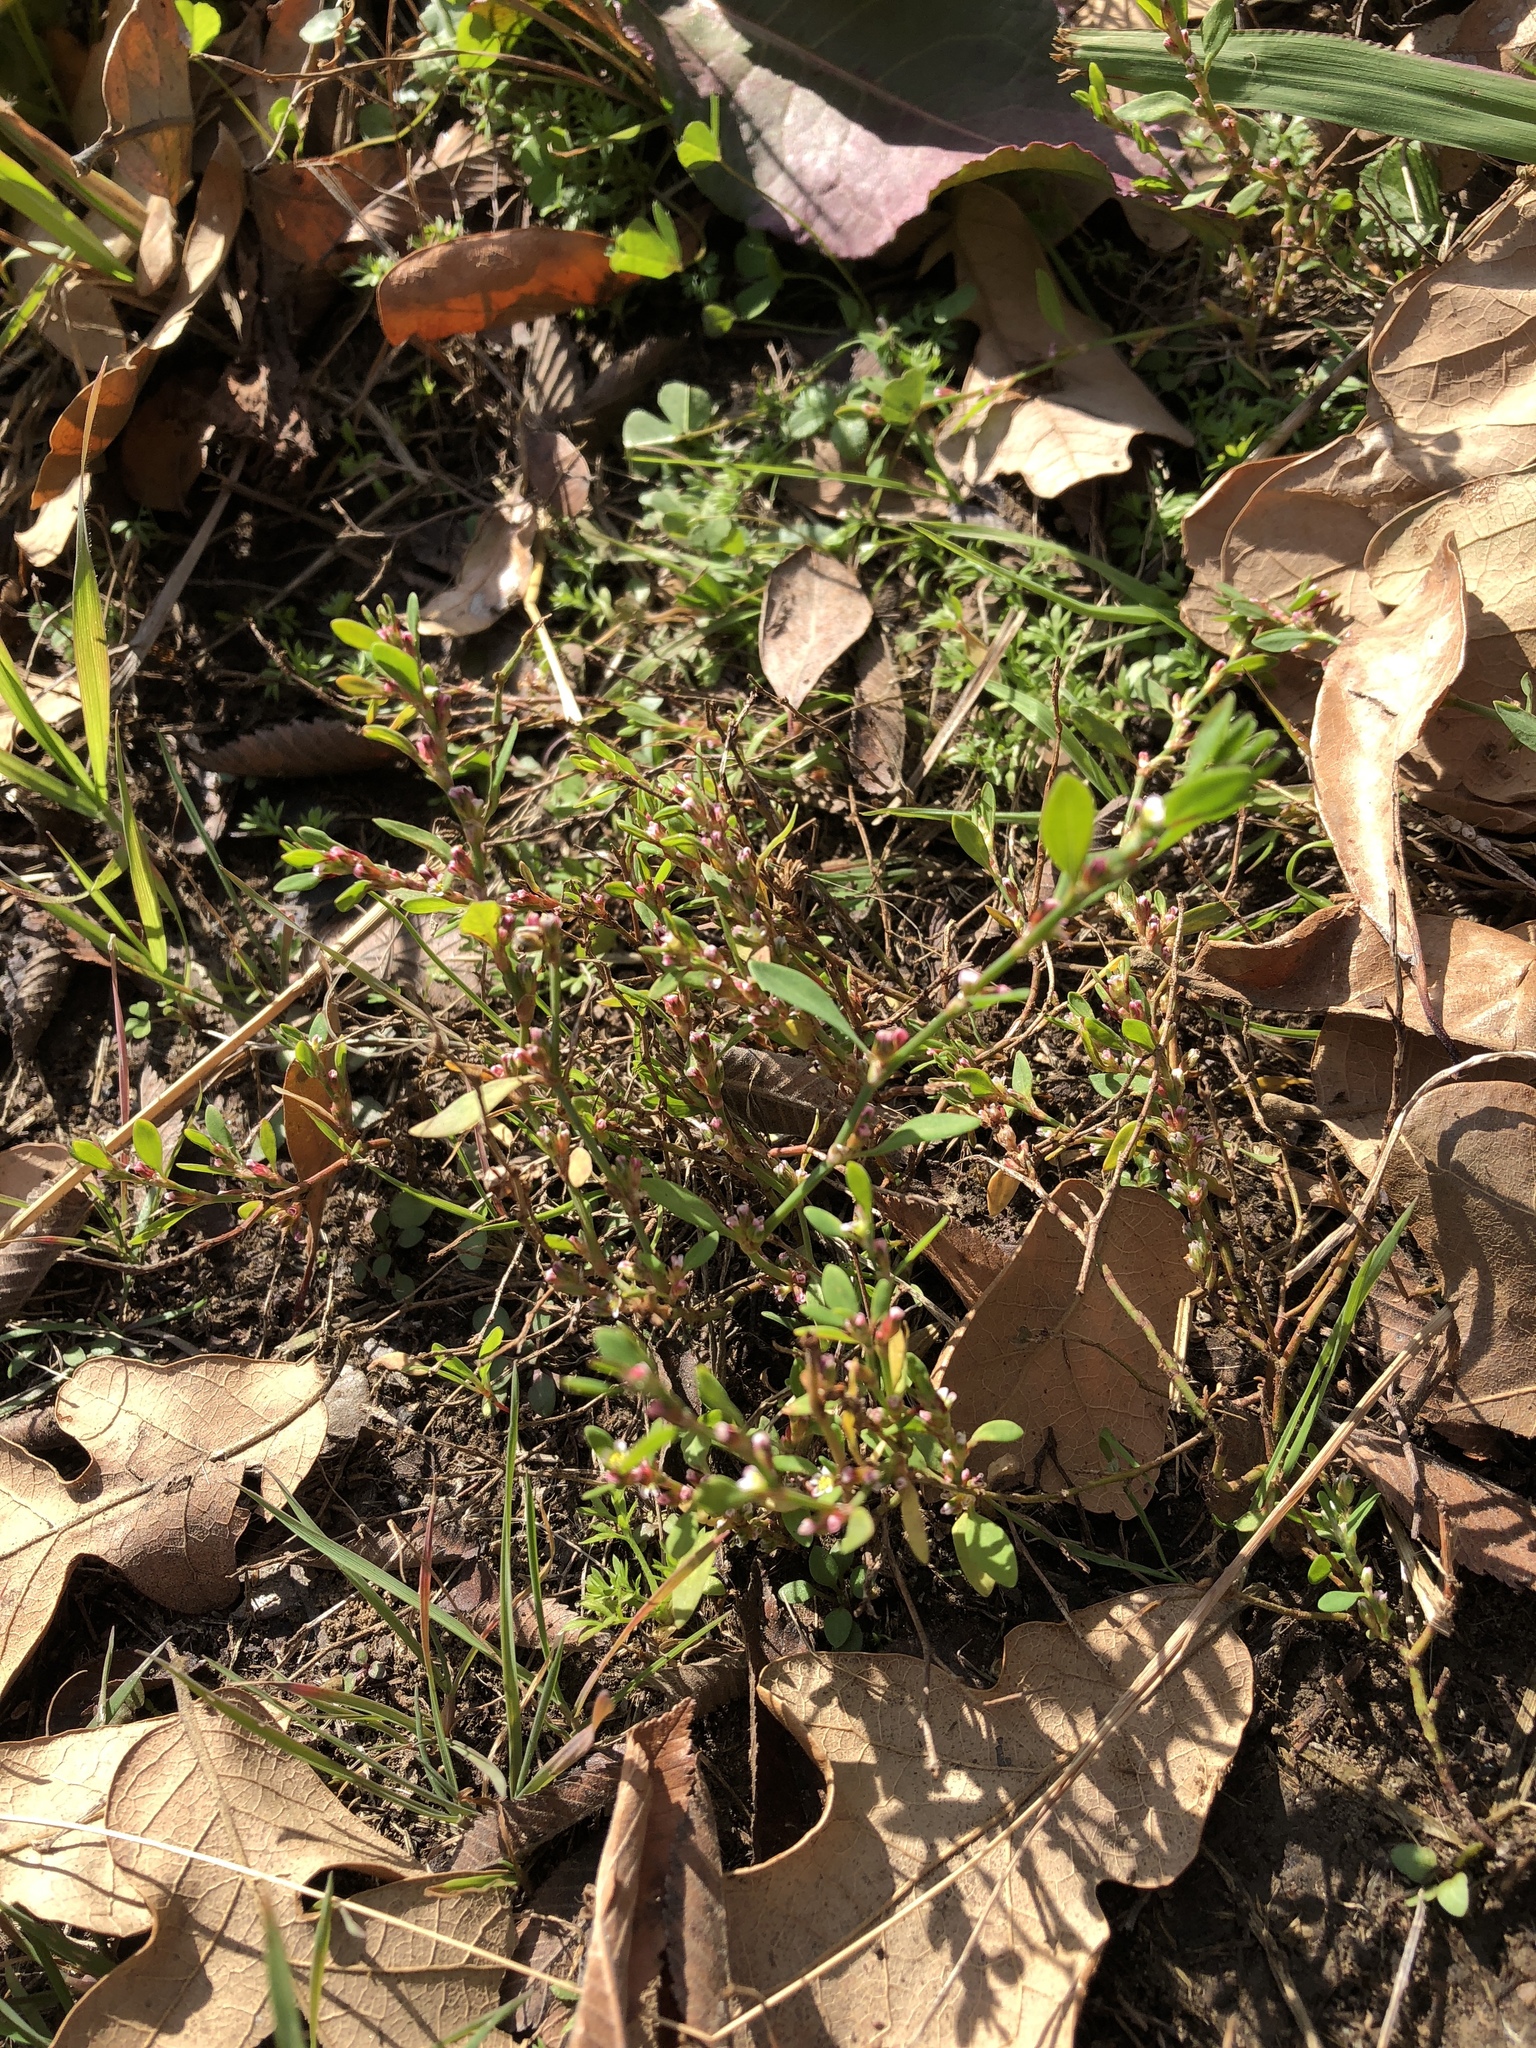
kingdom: Plantae
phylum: Tracheophyta
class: Magnoliopsida
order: Caryophyllales
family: Polygonaceae
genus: Polygonum
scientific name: Polygonum aviculare
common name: Prostrate knotweed
